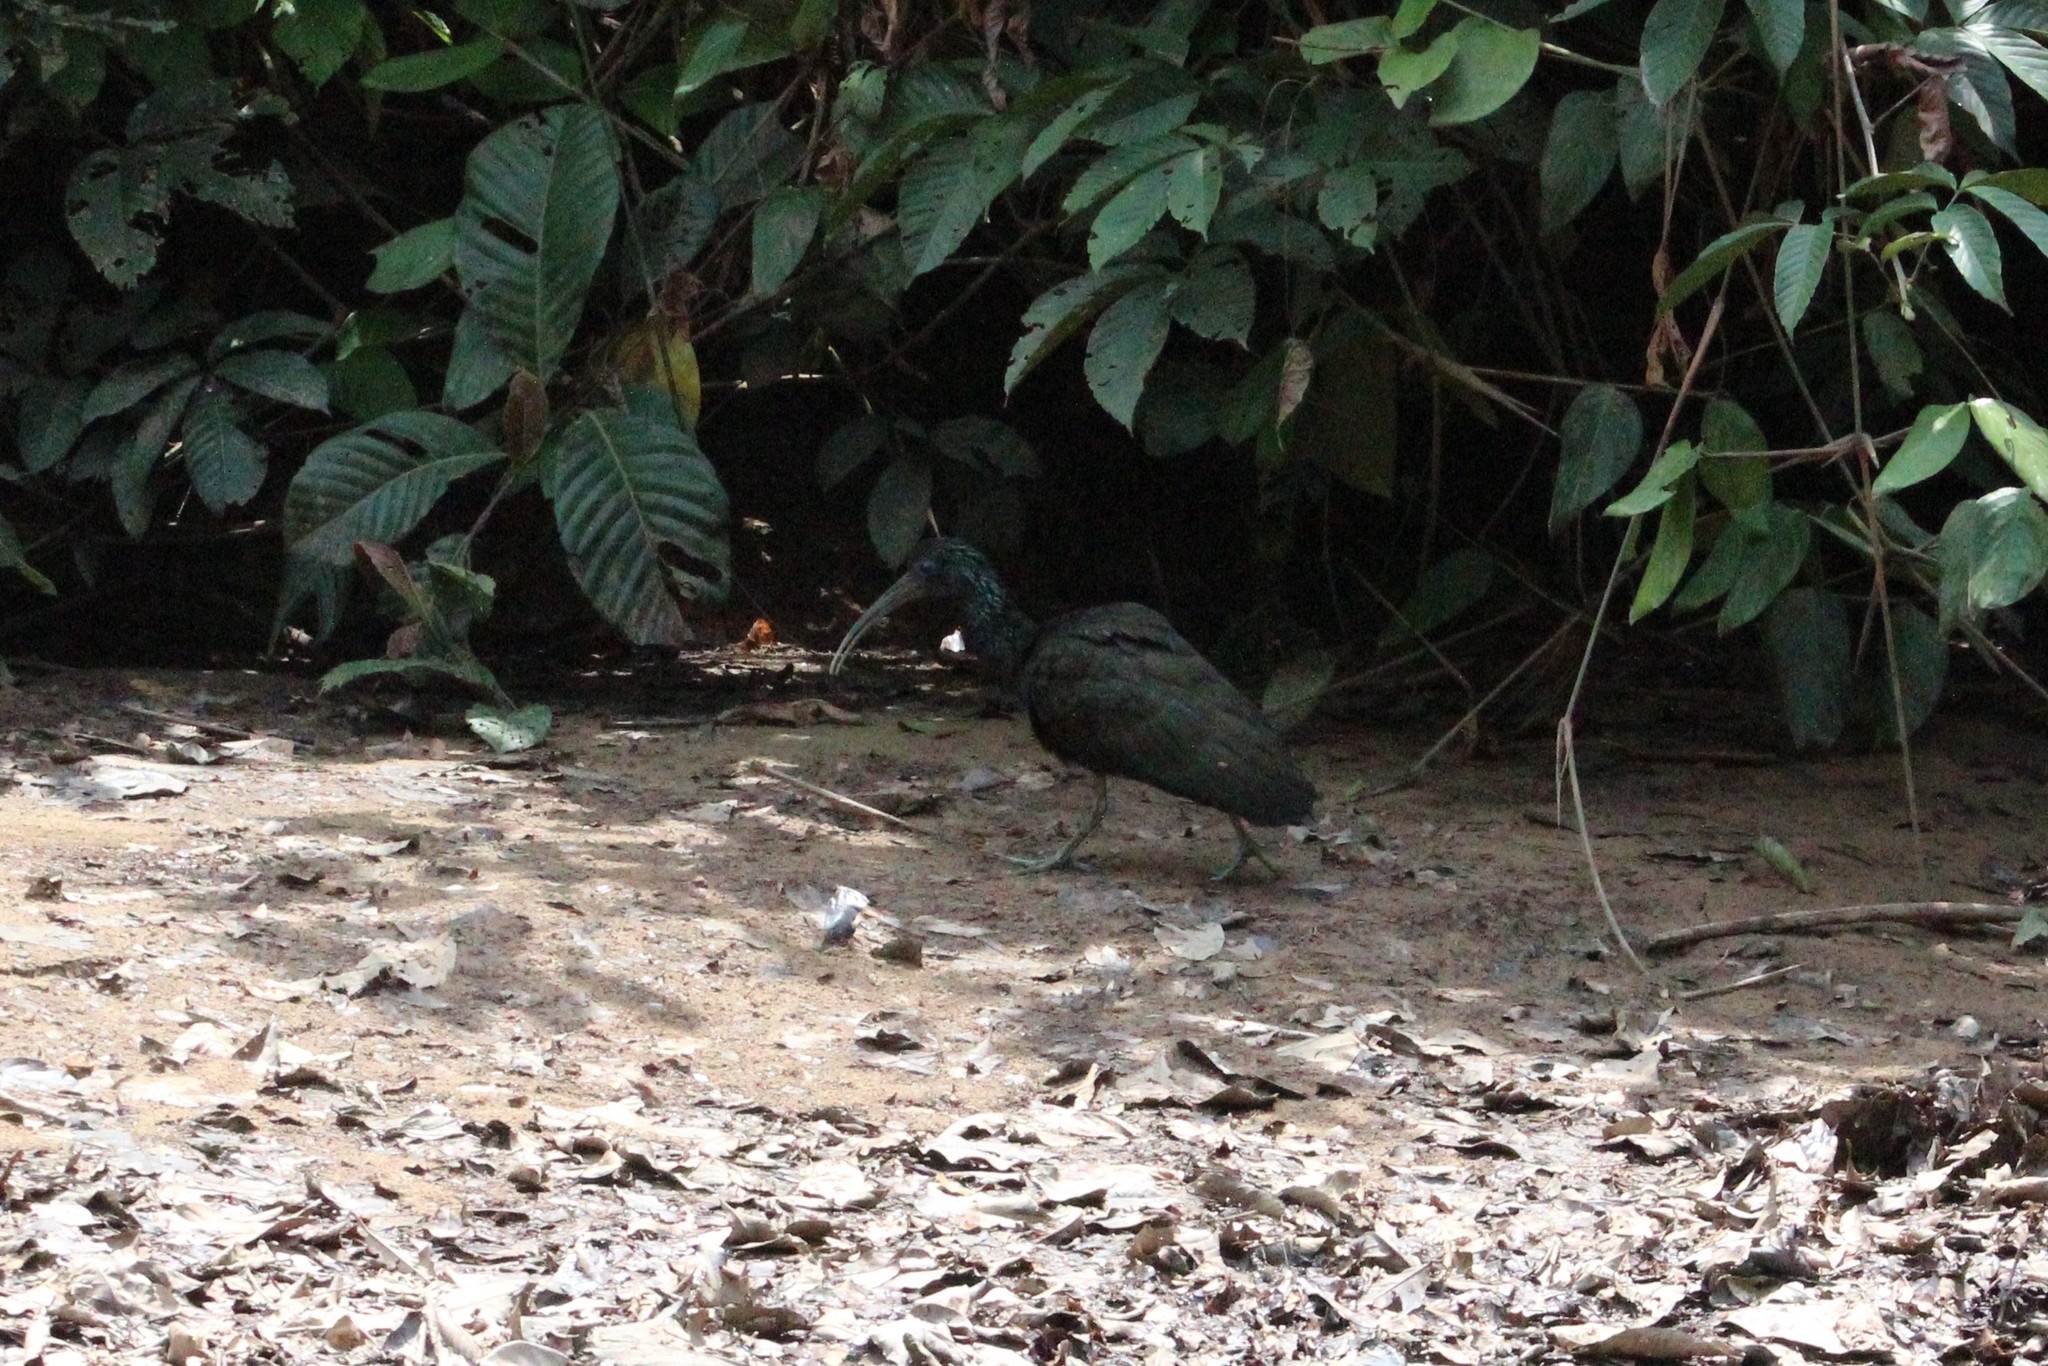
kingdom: Animalia
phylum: Chordata
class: Aves
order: Pelecaniformes
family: Threskiornithidae
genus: Mesembrinibis
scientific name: Mesembrinibis cayennensis
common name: Green ibis
